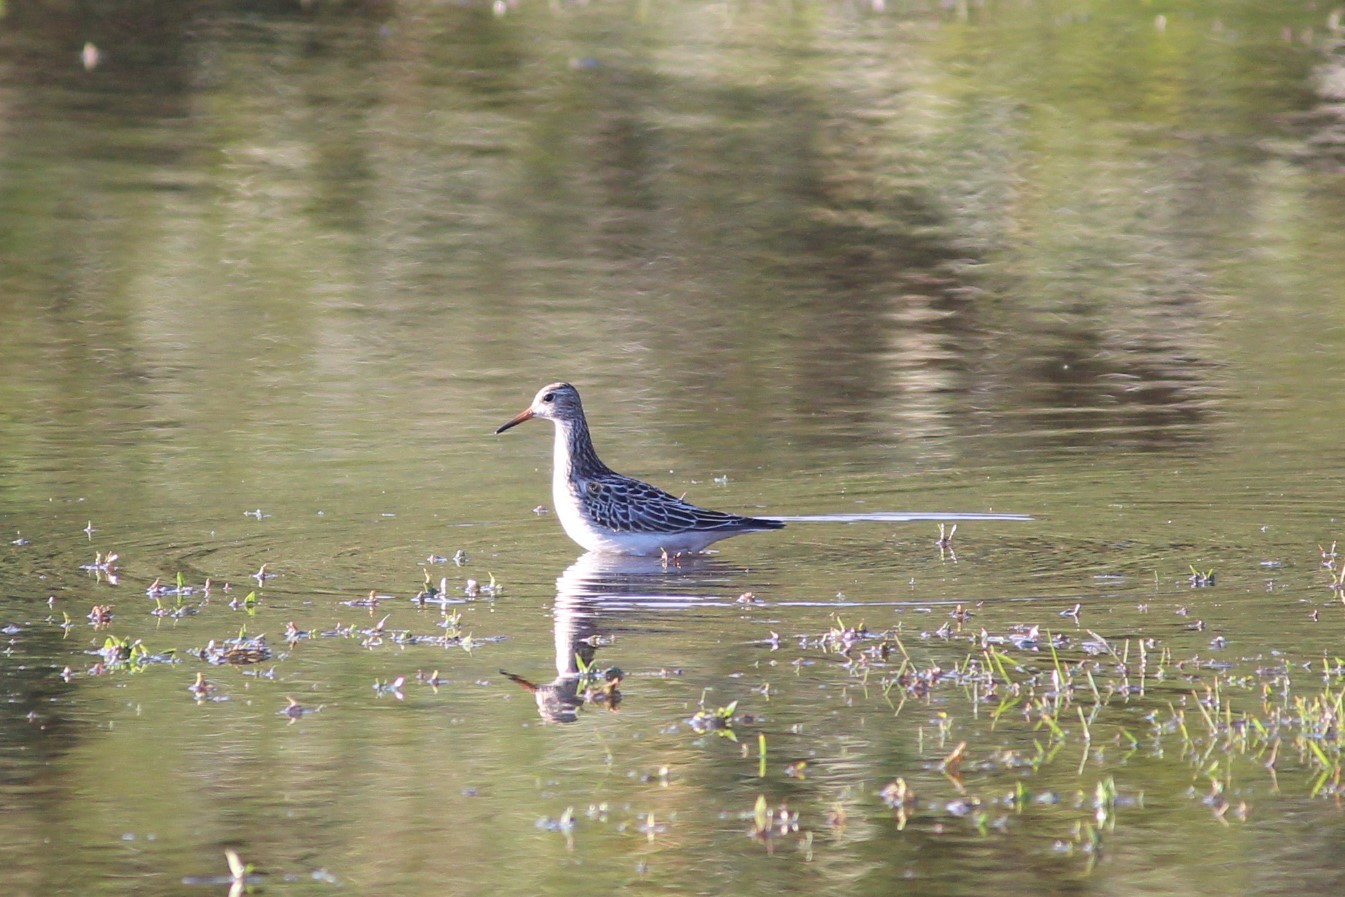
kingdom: Animalia
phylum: Chordata
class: Aves
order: Charadriiformes
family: Scolopacidae
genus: Calidris
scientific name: Calidris melanotos
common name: Pectoral sandpiper
